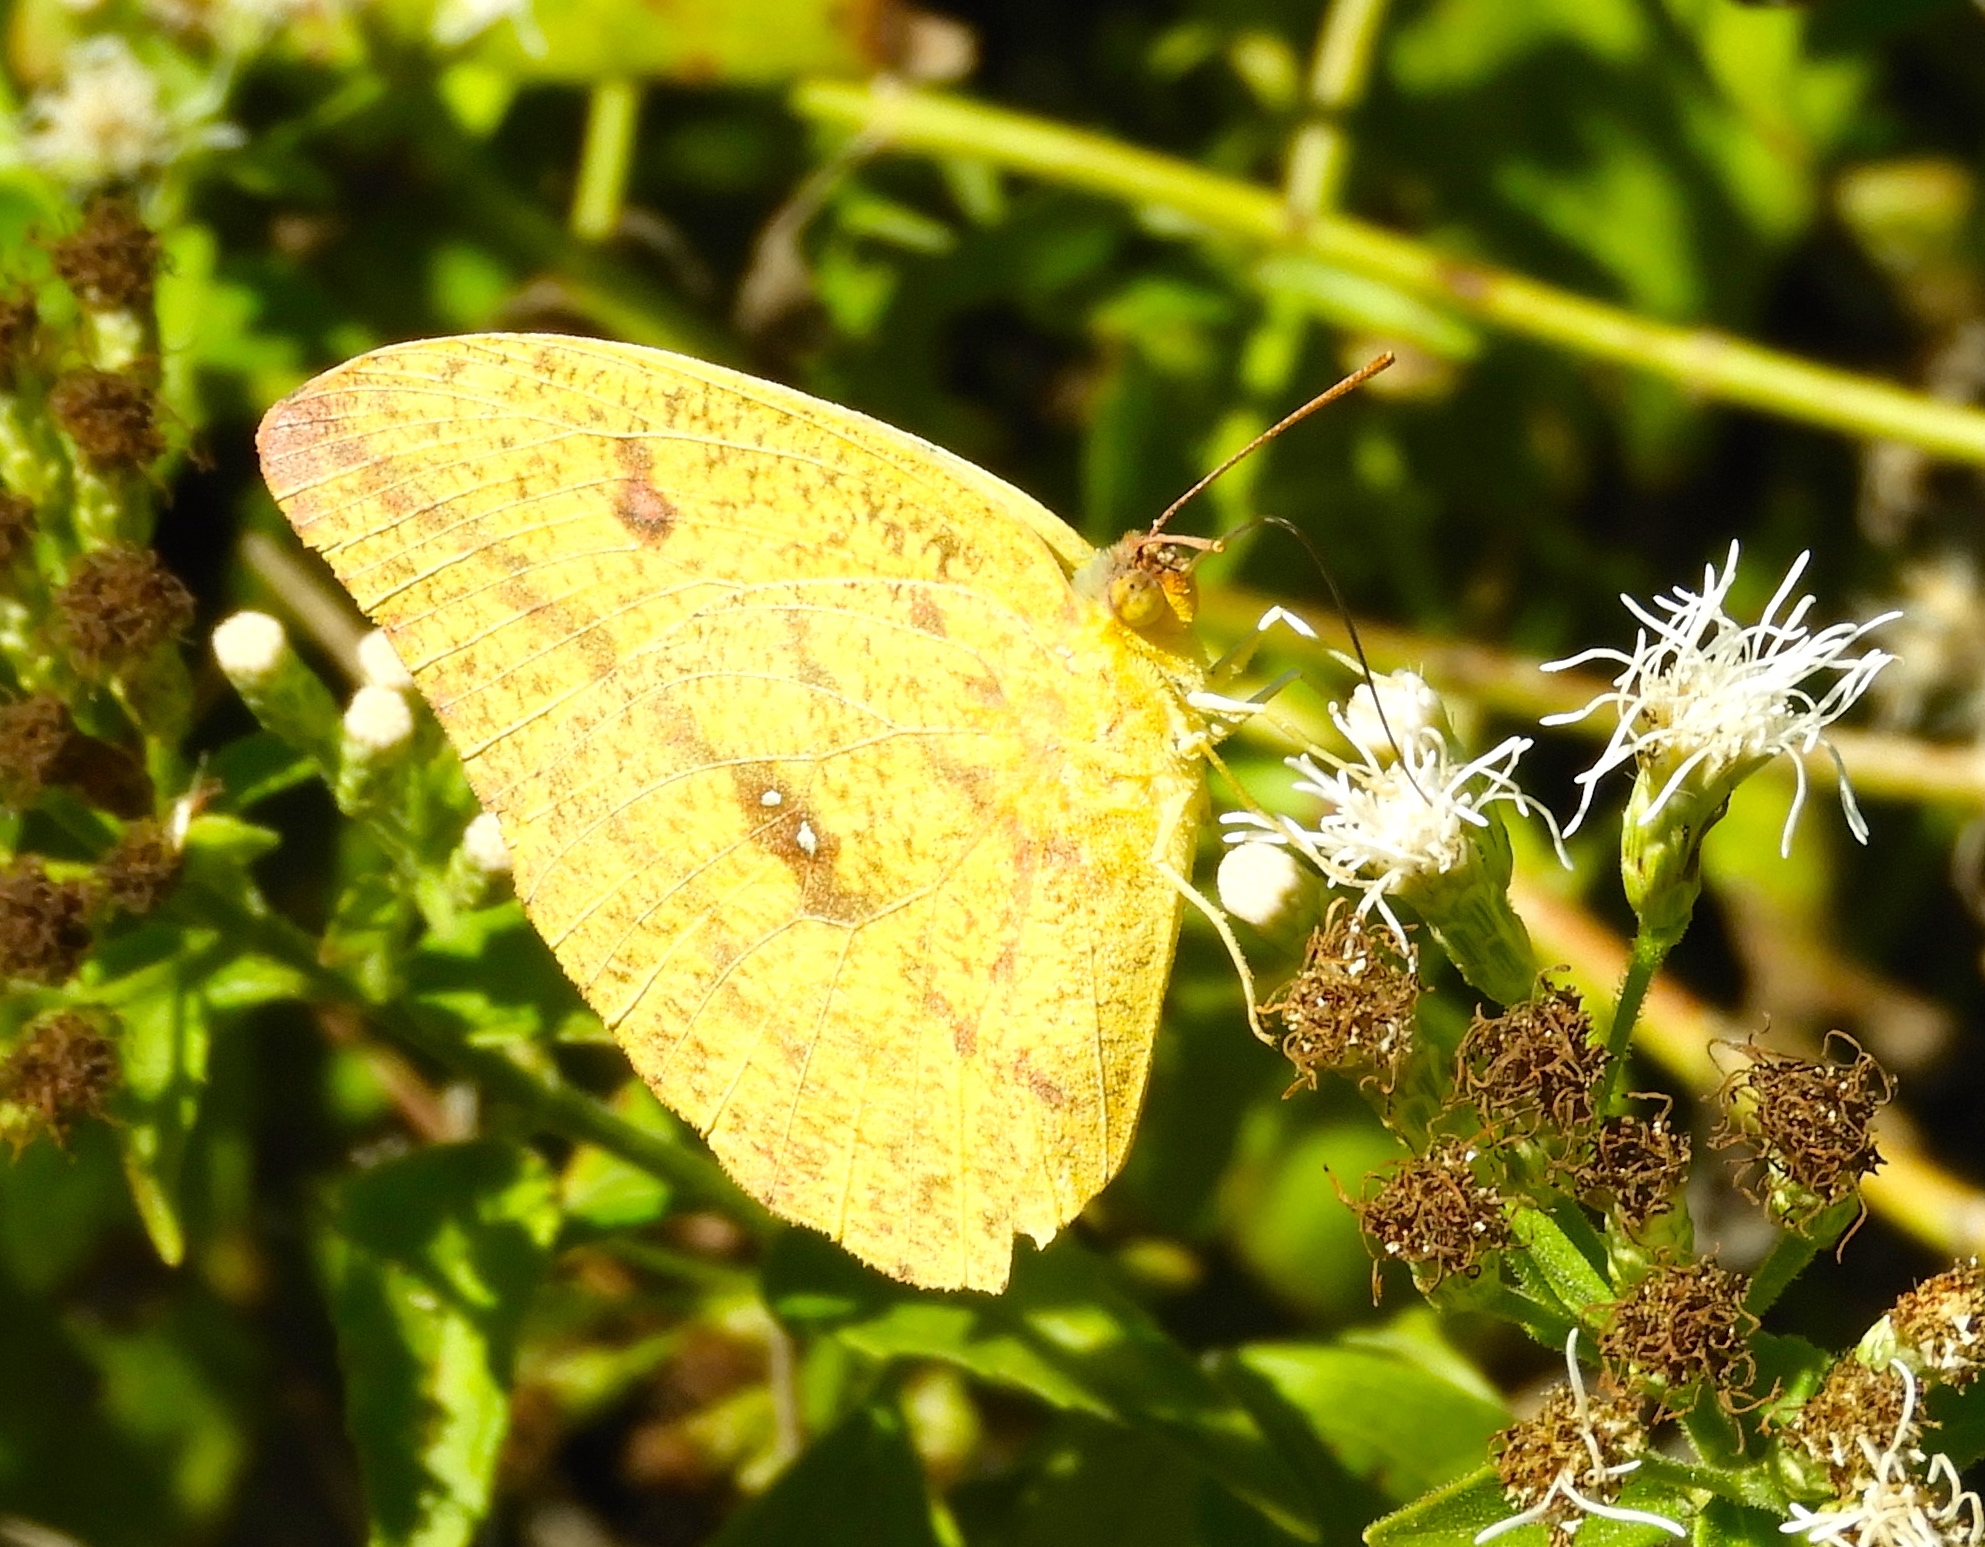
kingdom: Animalia
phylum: Arthropoda
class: Insecta
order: Lepidoptera
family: Pieridae
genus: Phoebis
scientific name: Phoebis agarithe
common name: Large orange sulphur
